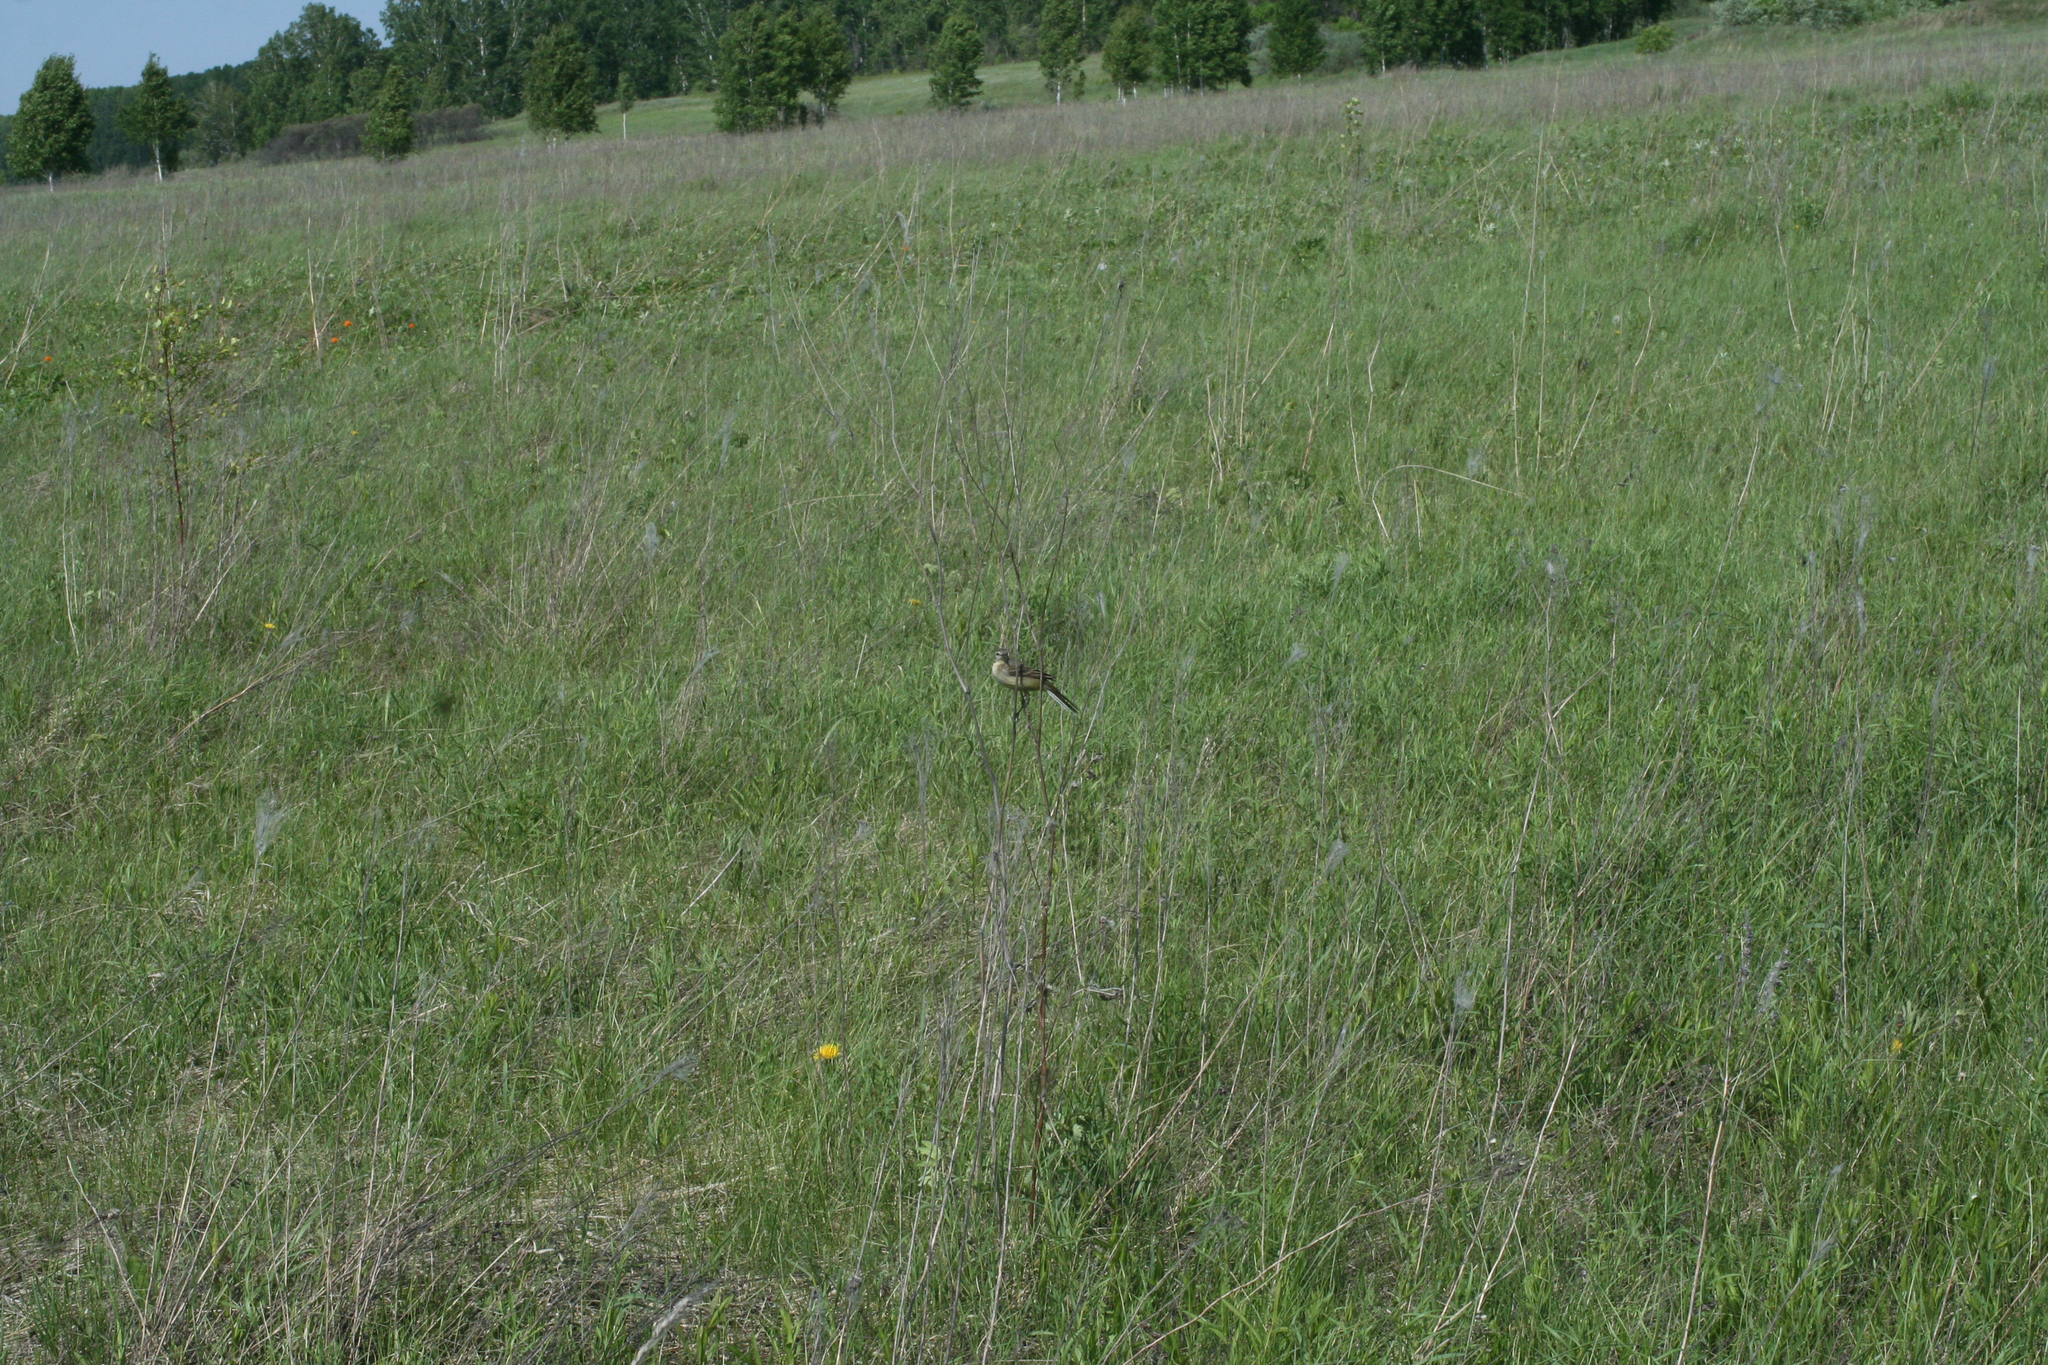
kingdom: Animalia
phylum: Chordata
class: Aves
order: Passeriformes
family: Motacillidae
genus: Motacilla
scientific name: Motacilla flava
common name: Western yellow wagtail
